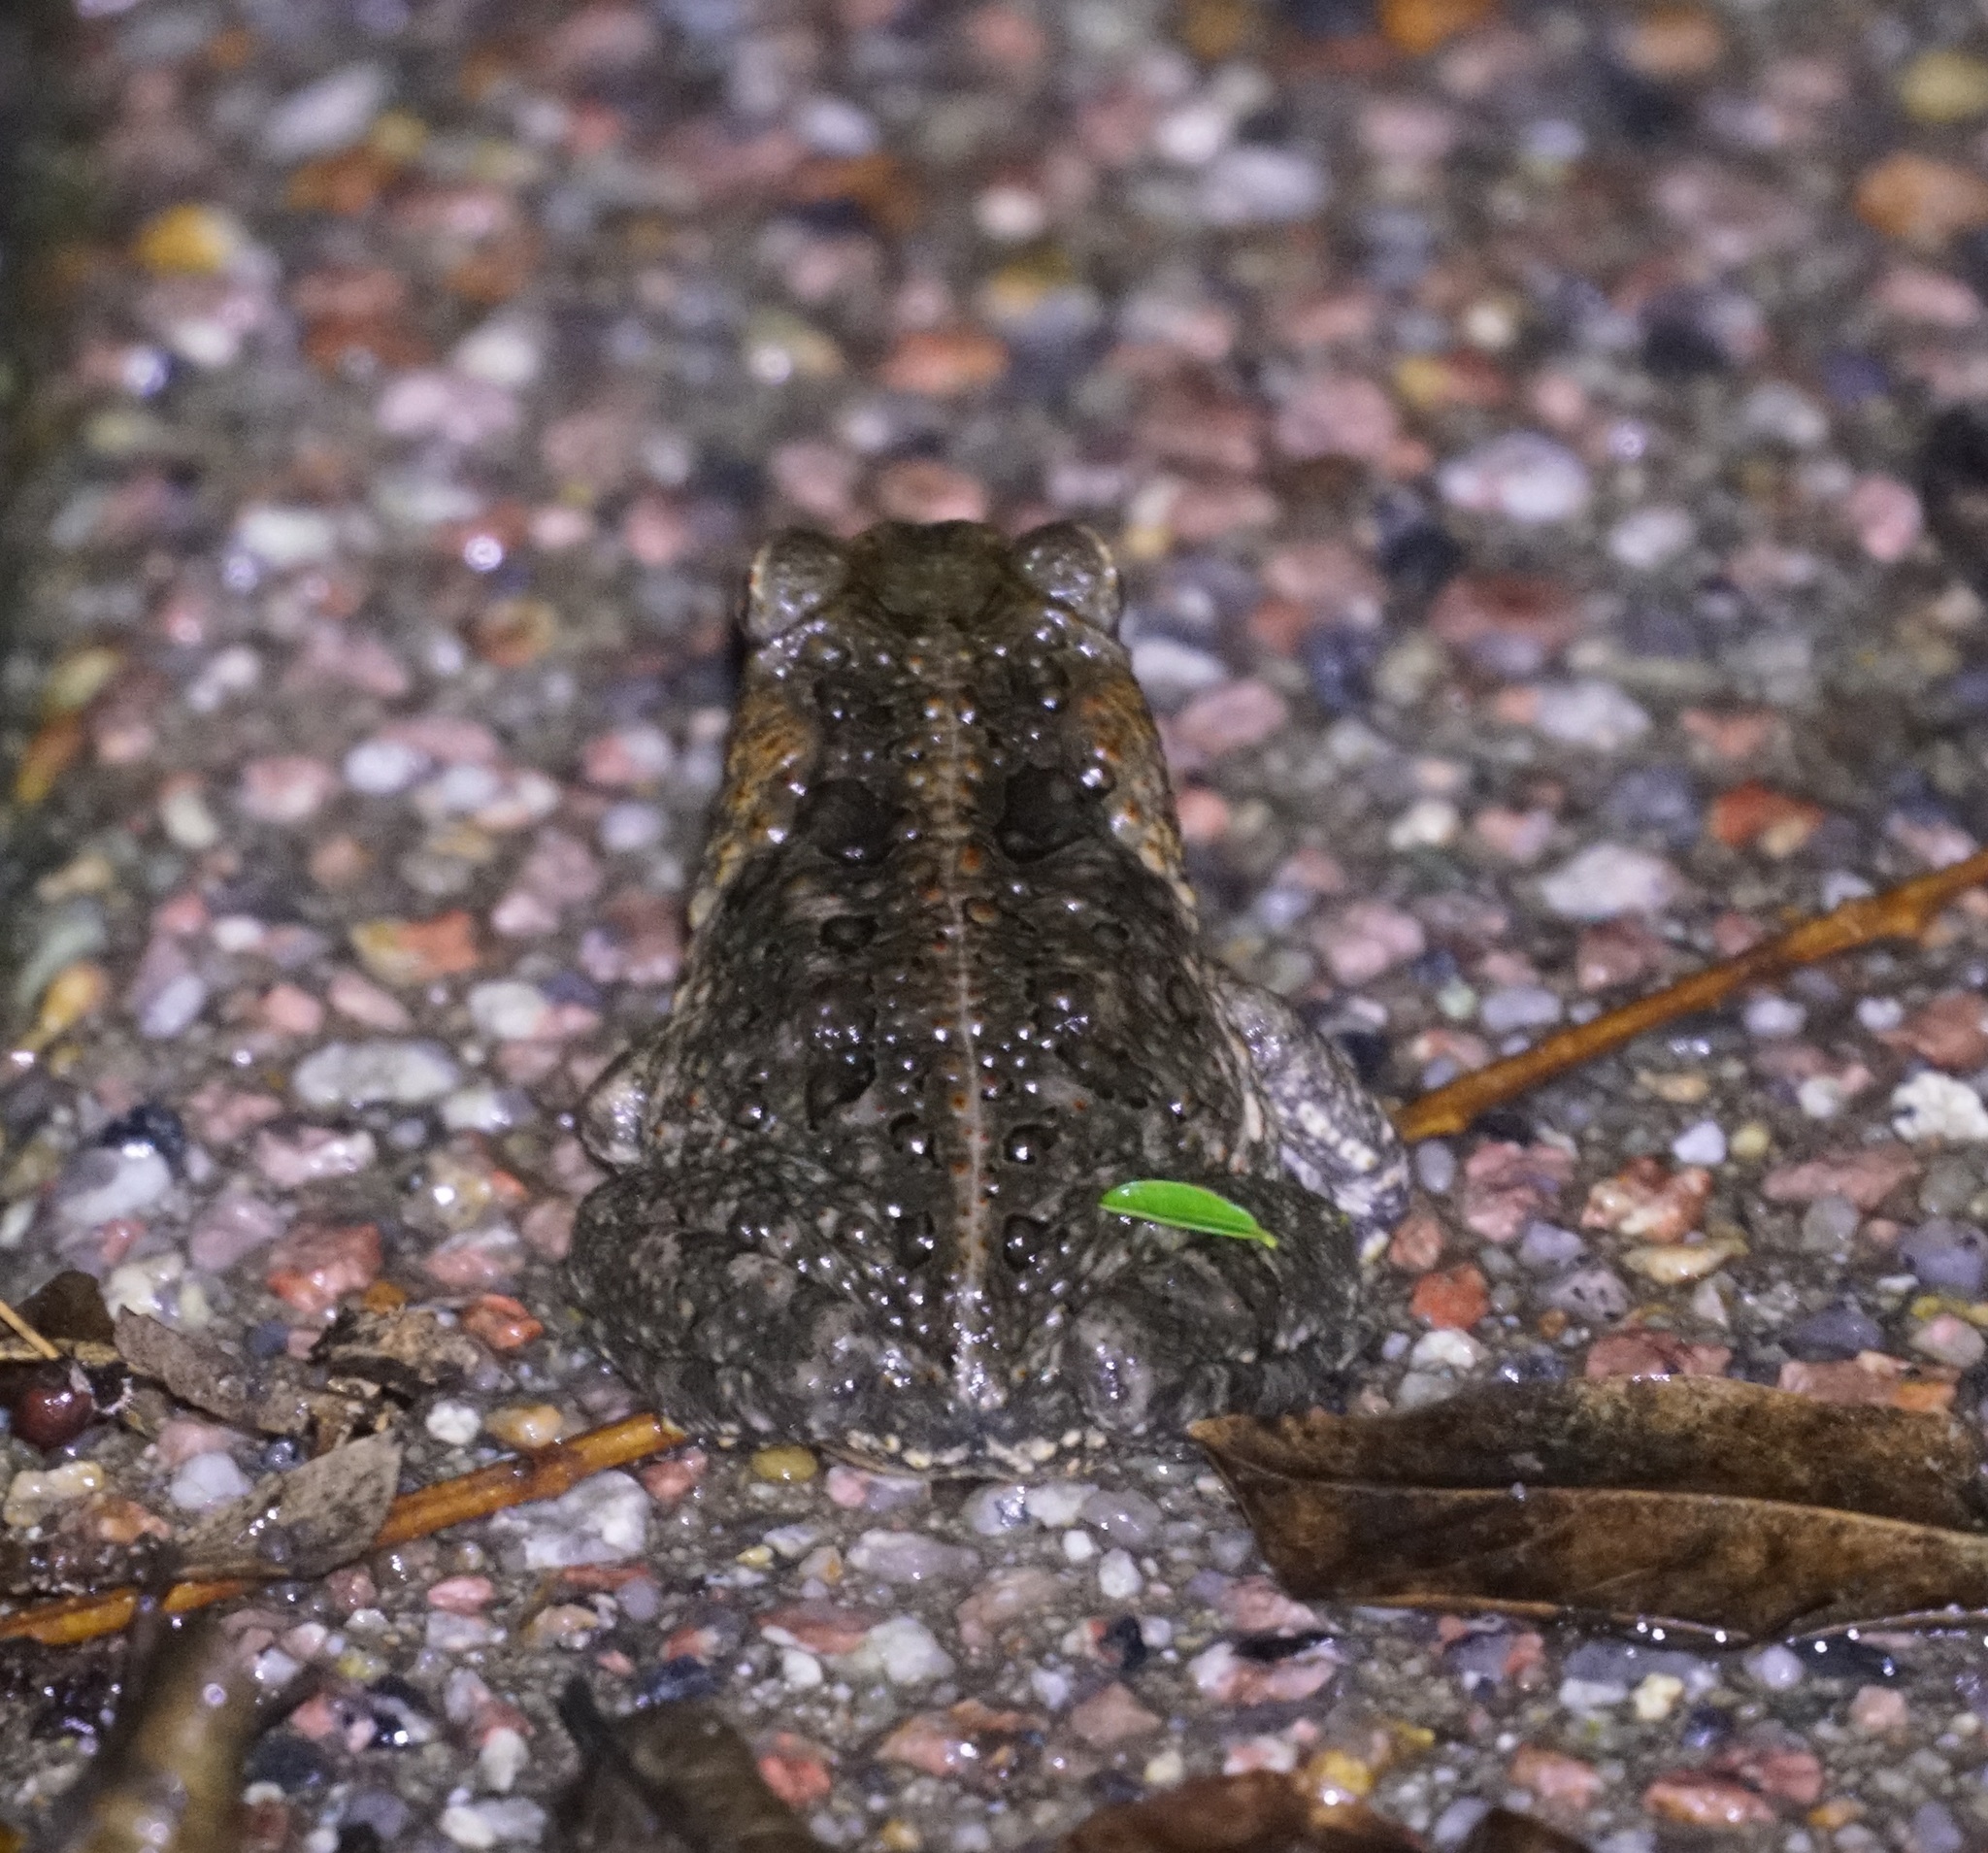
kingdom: Animalia
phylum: Chordata
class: Amphibia
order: Anura
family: Bufonidae
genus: Rhinella
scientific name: Rhinella marina
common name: Cane toad
